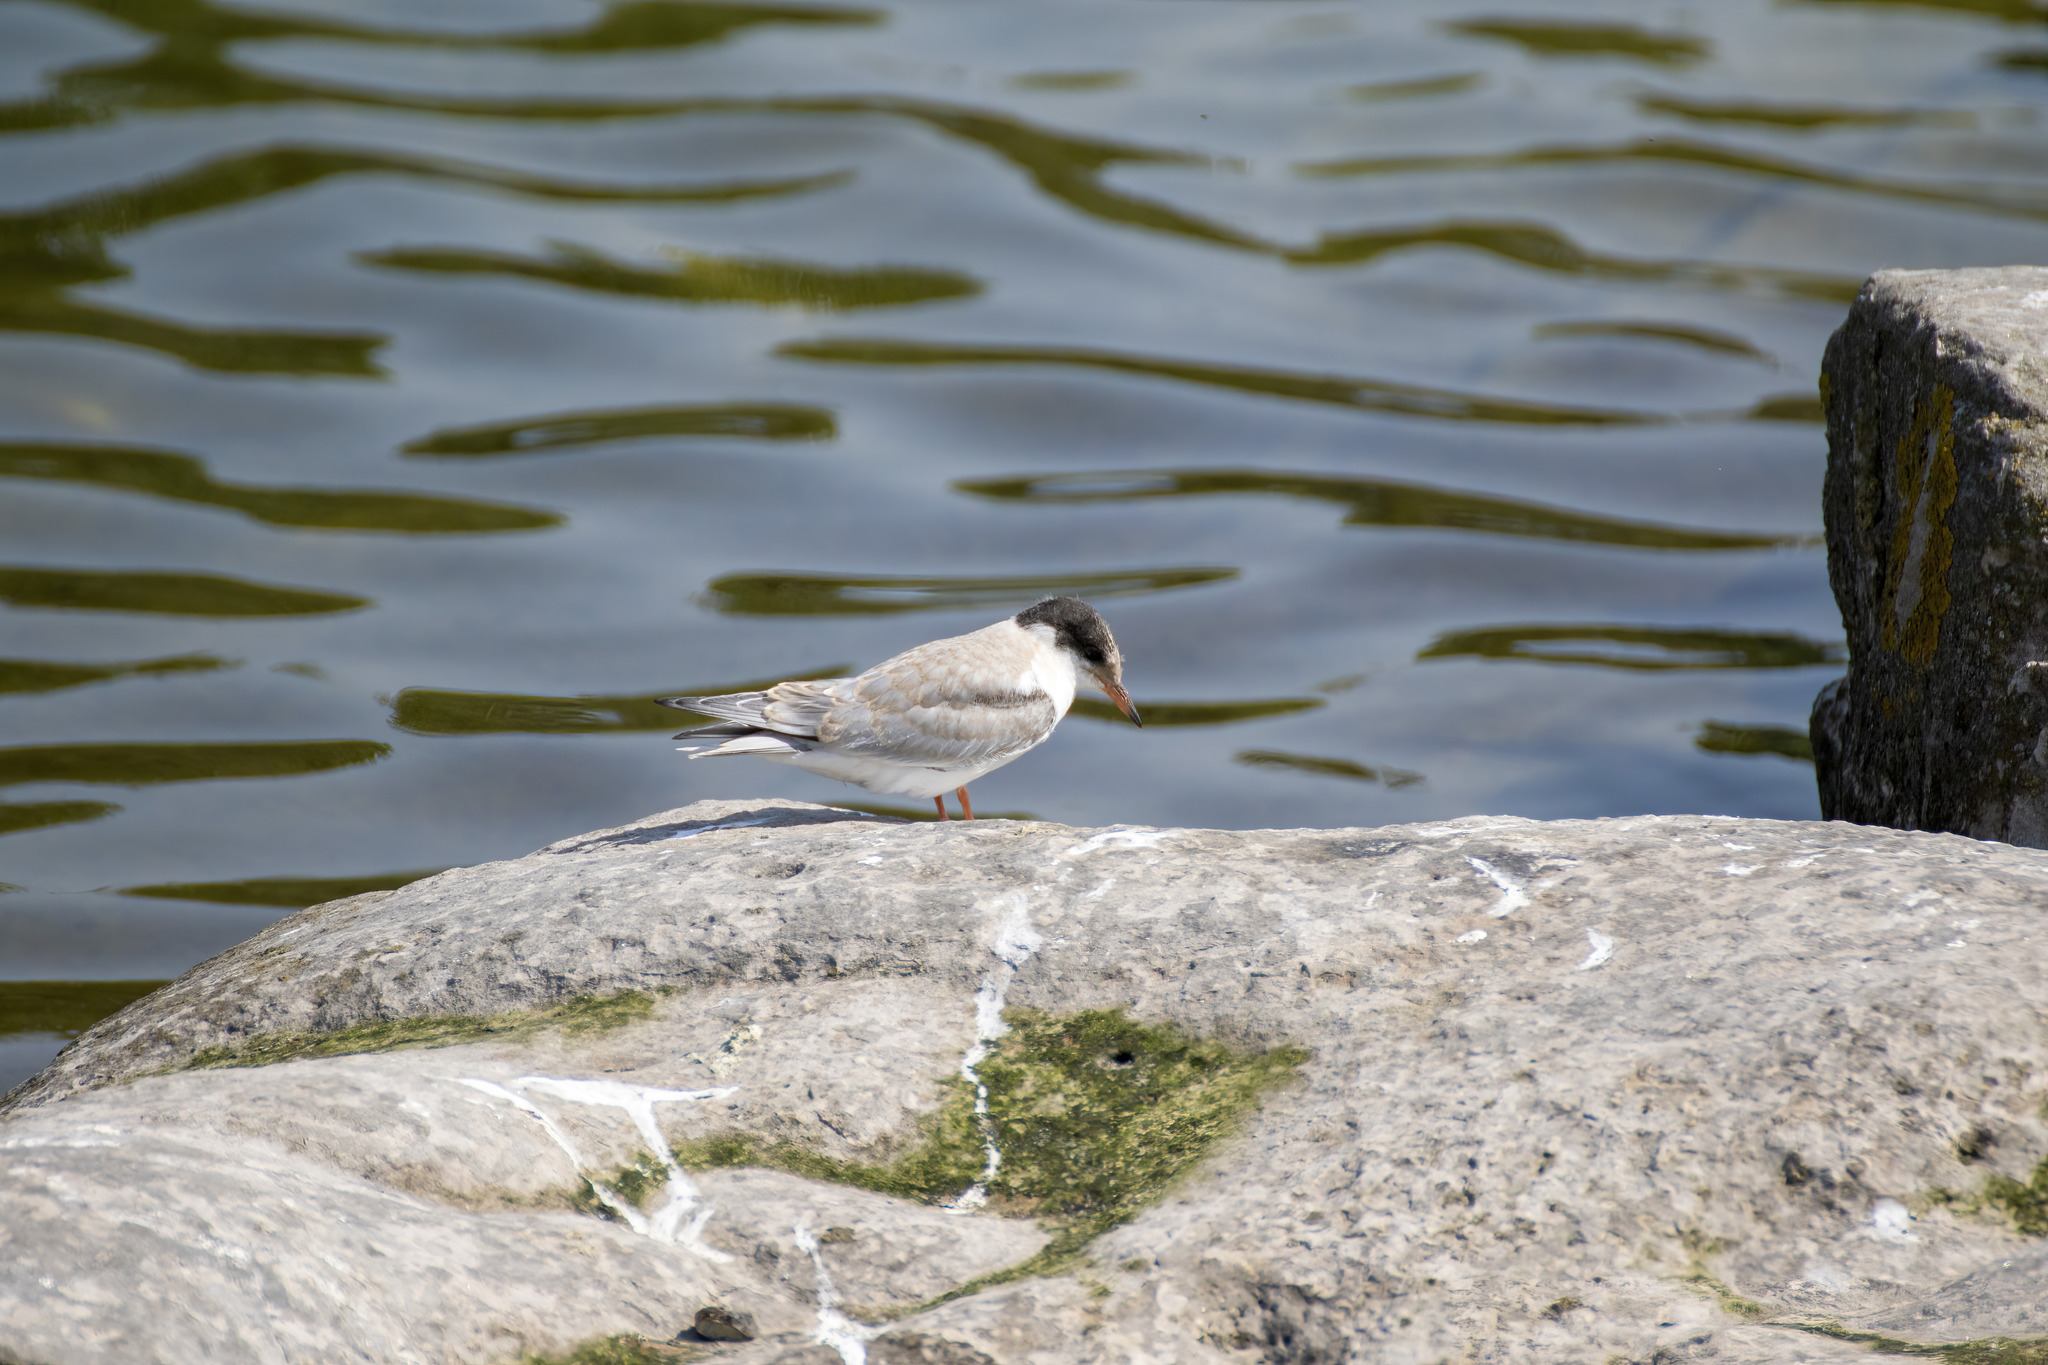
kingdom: Animalia
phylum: Chordata
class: Aves
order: Charadriiformes
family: Laridae
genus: Sterna
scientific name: Sterna hirundo
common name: Common tern
